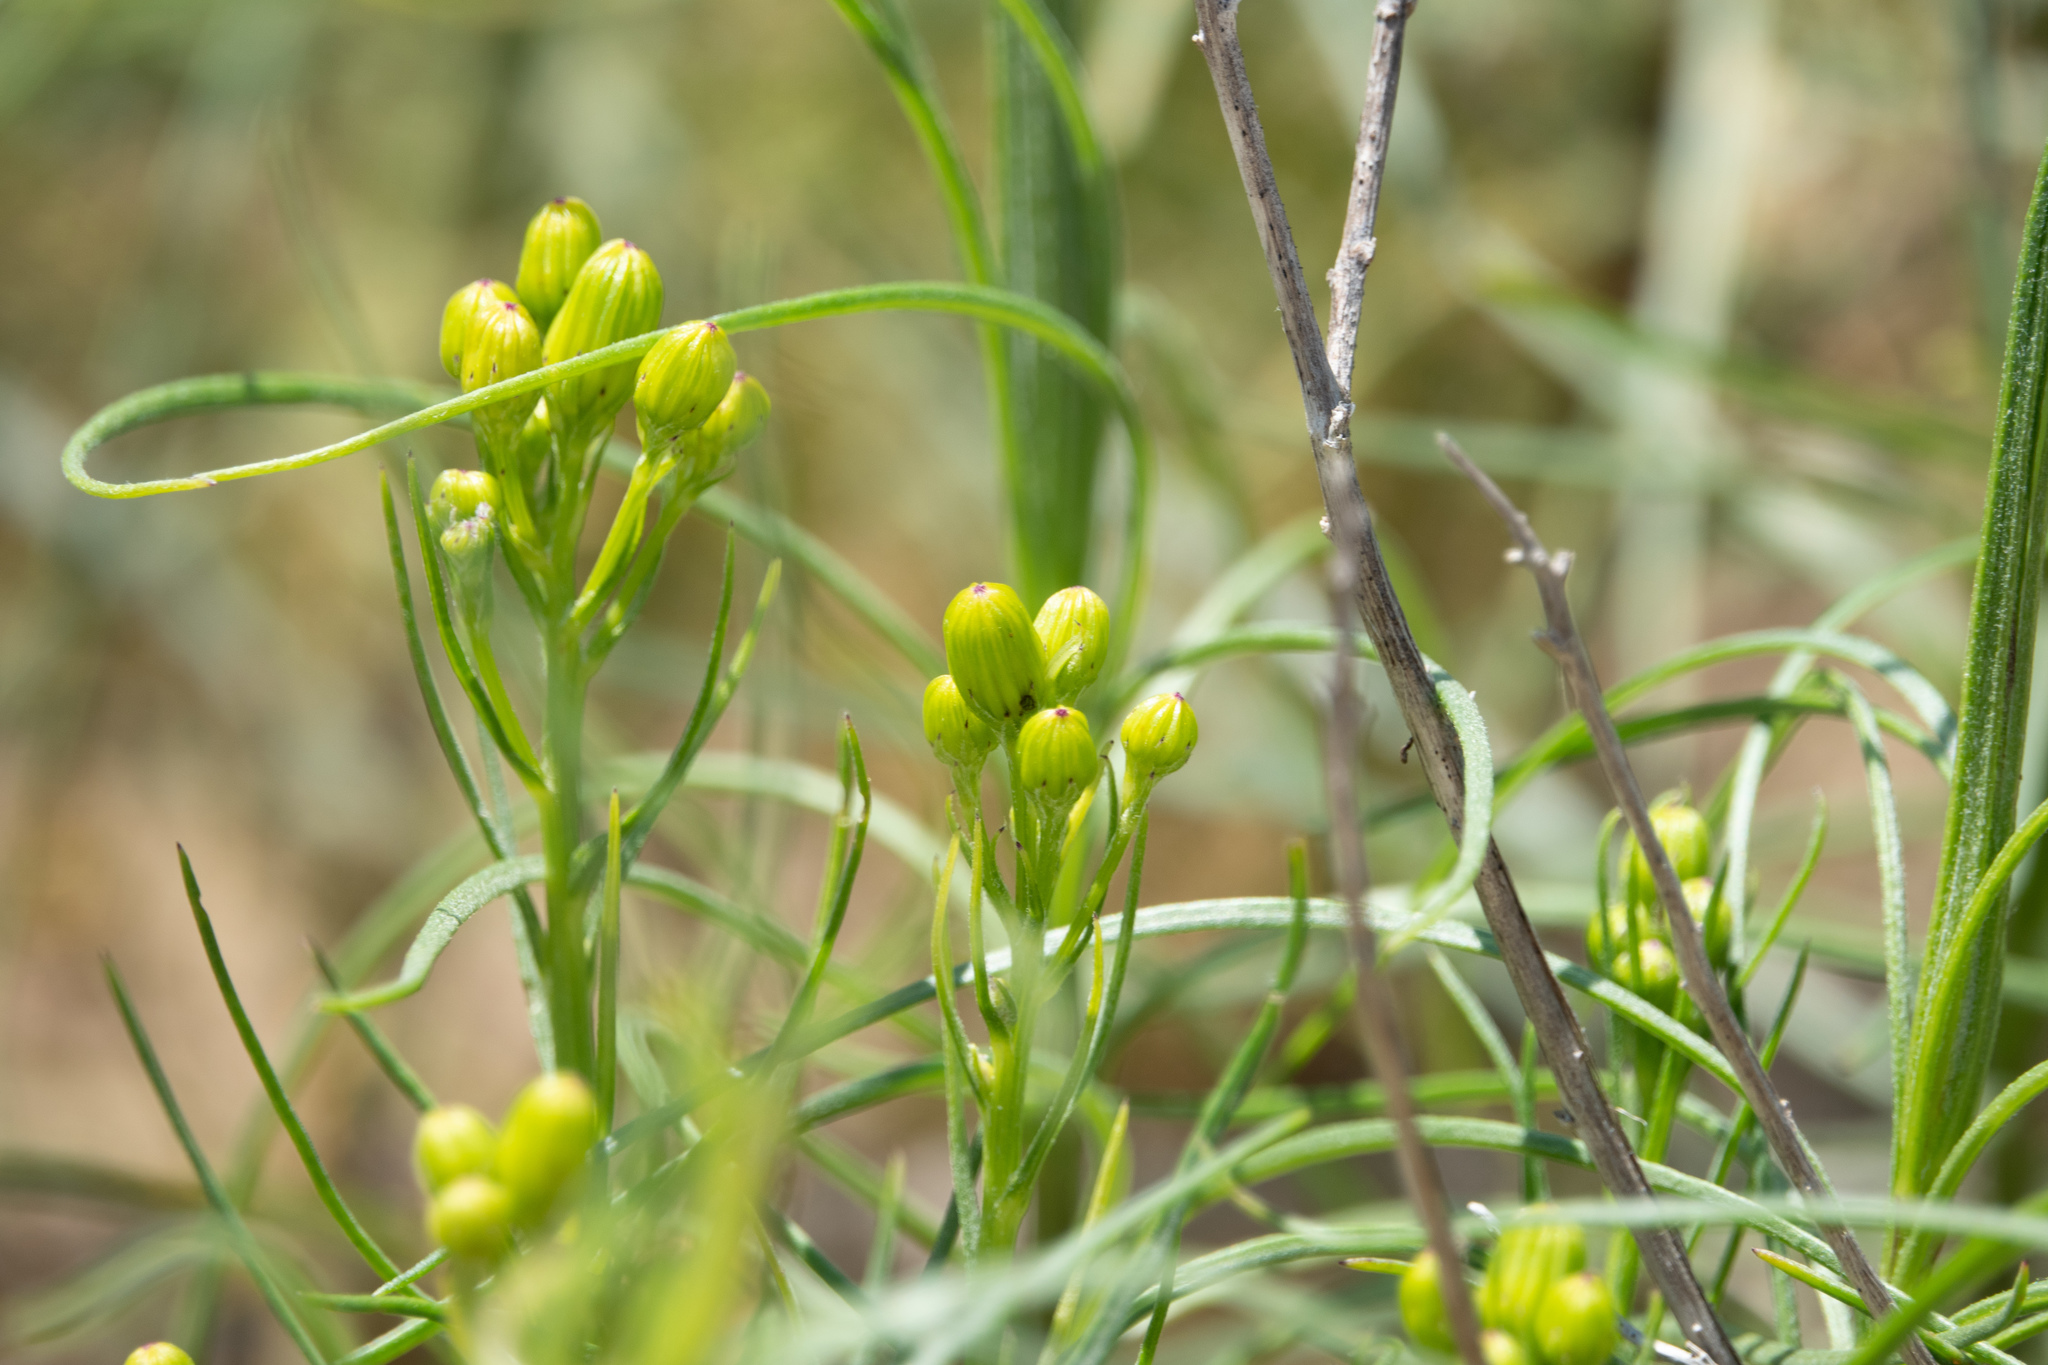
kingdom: Plantae
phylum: Tracheophyta
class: Magnoliopsida
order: Asterales
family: Asteraceae
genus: Senecio
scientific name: Senecio blochmaniae
